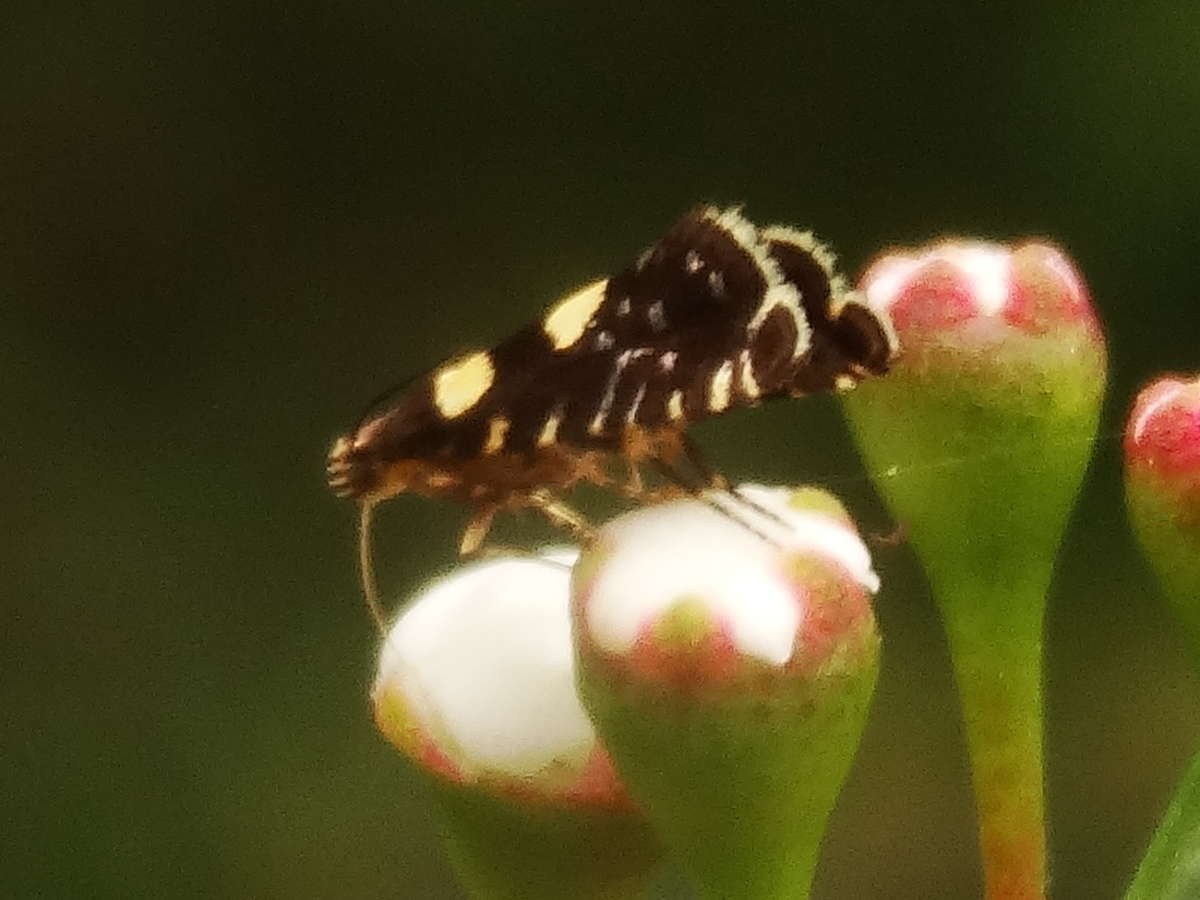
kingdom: Animalia
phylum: Arthropoda
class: Insecta
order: Lepidoptera
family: Glyphipterigidae
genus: Glyphipterix
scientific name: Glyphipterix chrysoplanetis
